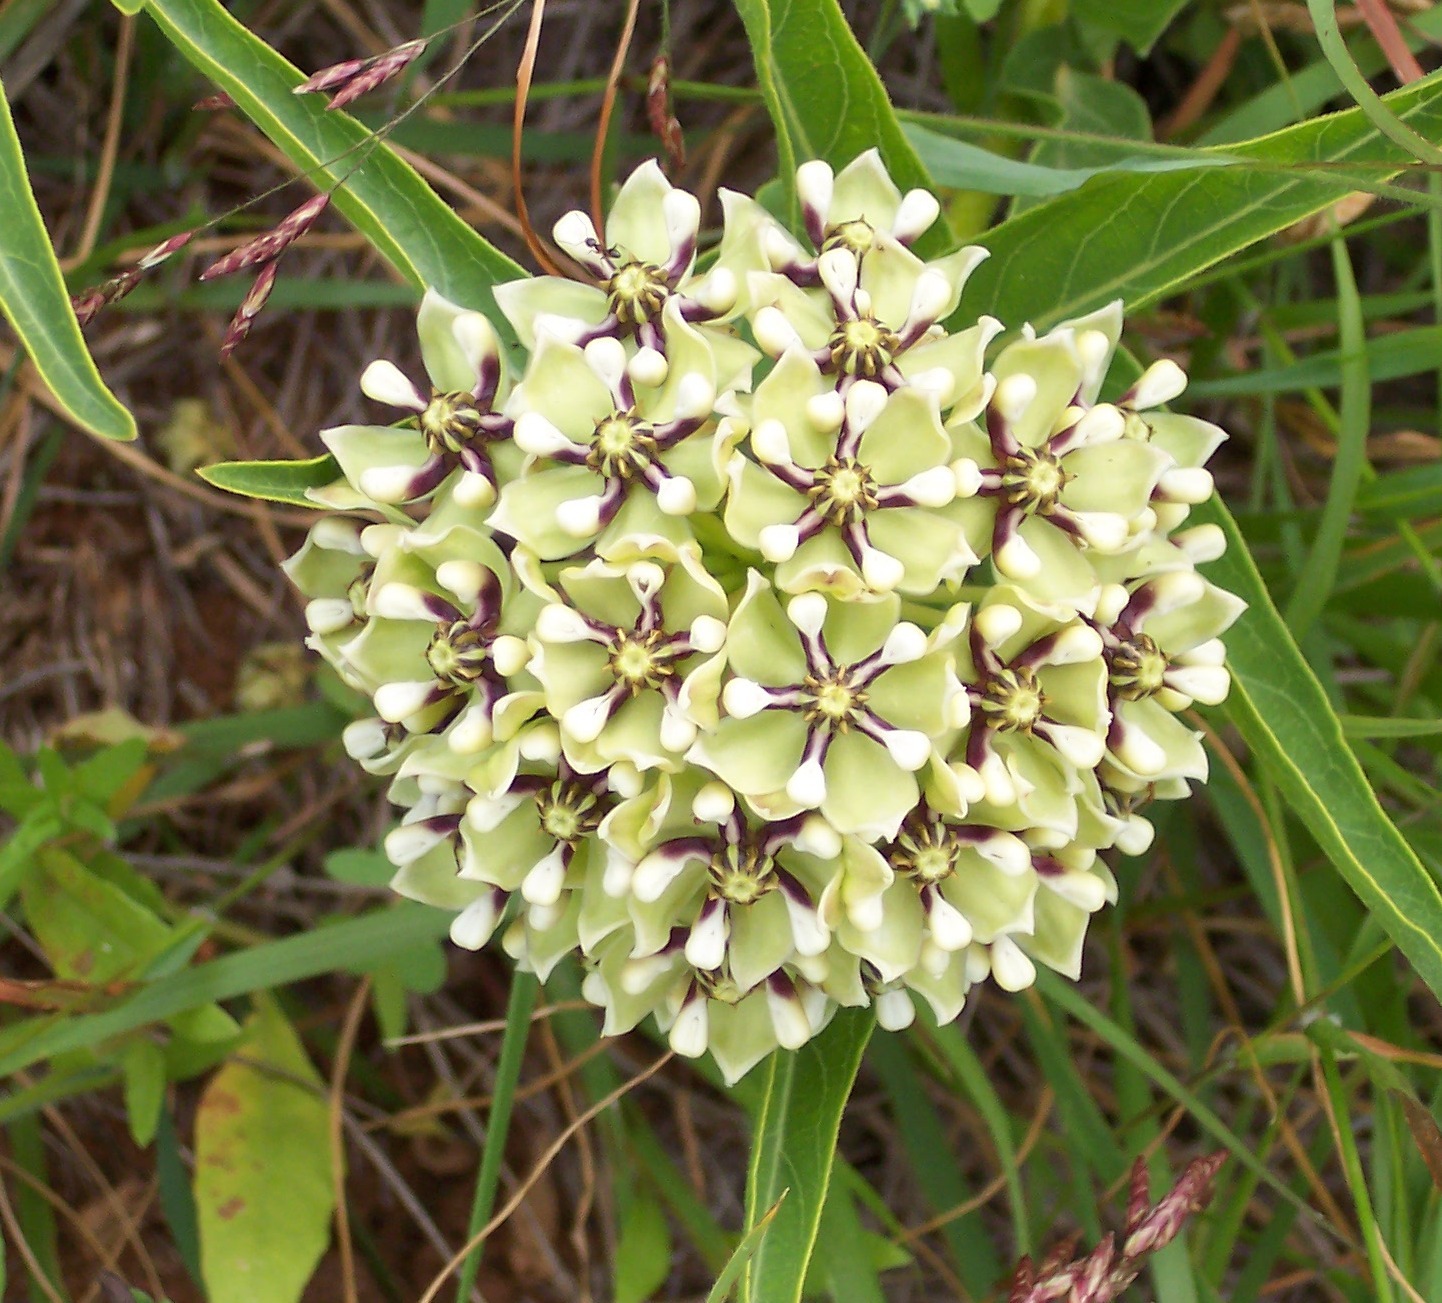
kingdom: Plantae
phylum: Tracheophyta
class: Magnoliopsida
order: Gentianales
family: Apocynaceae
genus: Asclepias
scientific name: Asclepias asperula
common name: Antelope horns
